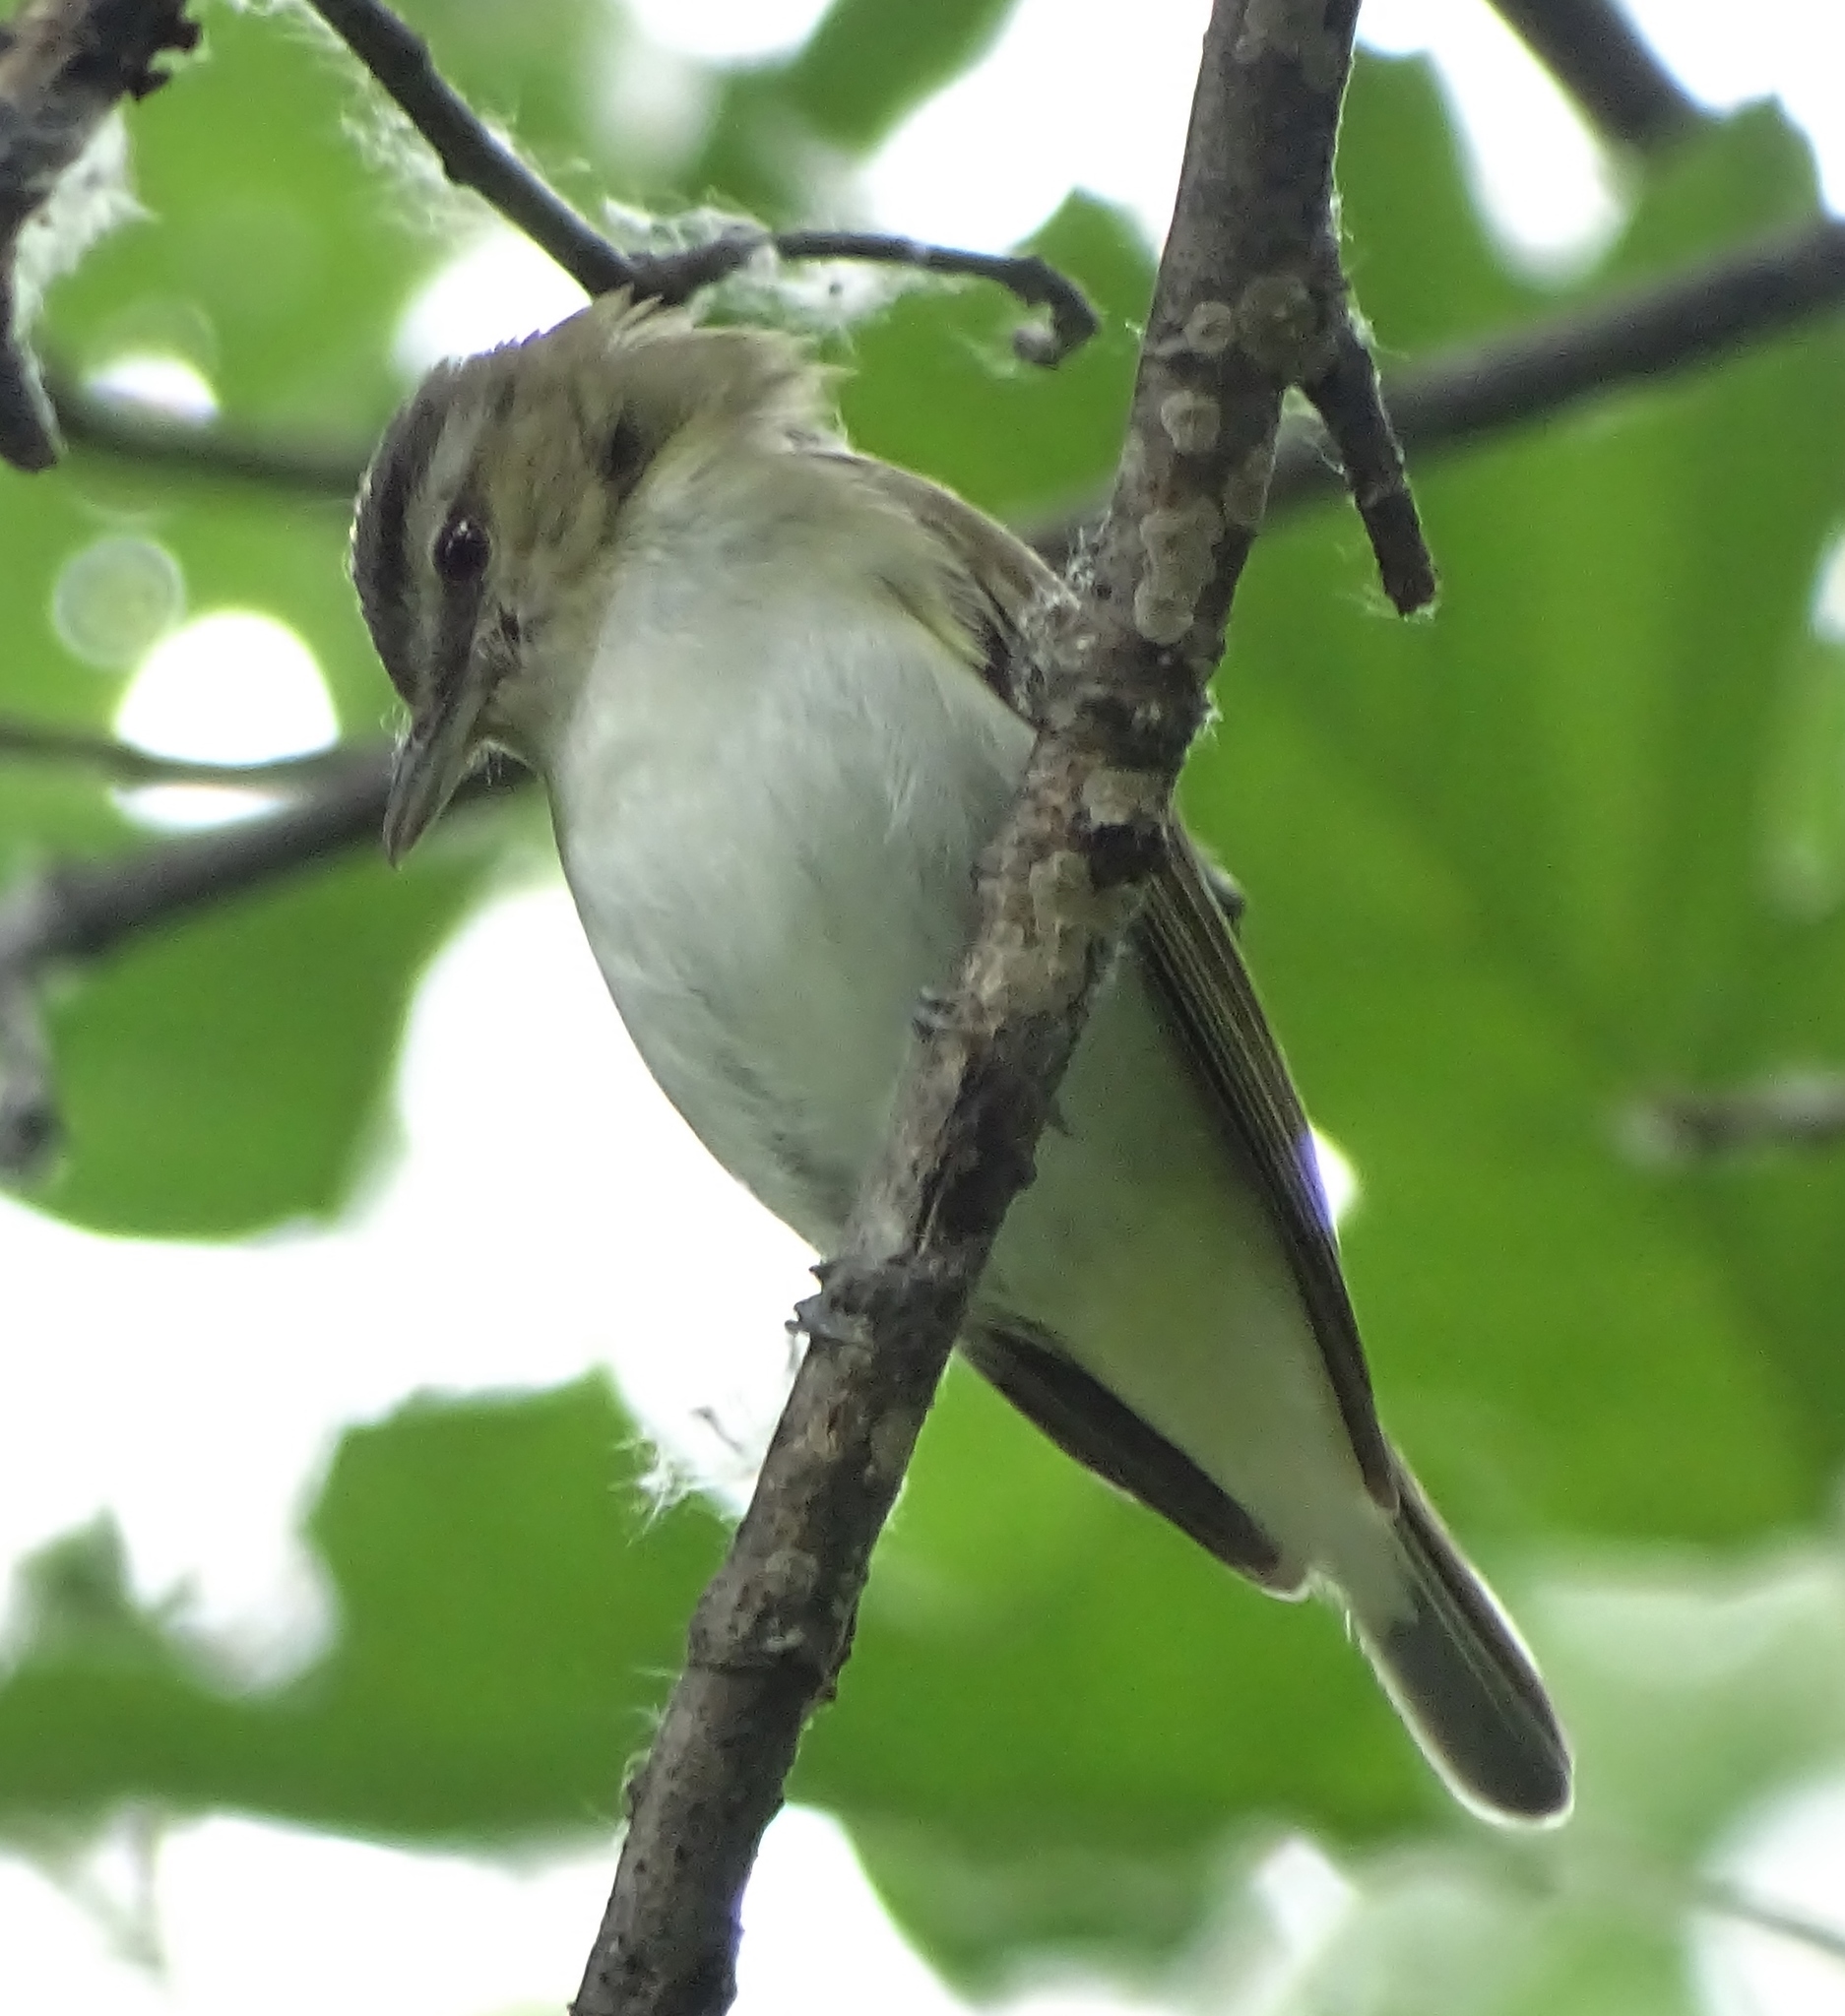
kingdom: Animalia
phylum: Chordata
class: Aves
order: Passeriformes
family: Vireonidae
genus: Vireo
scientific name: Vireo olivaceus
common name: Red-eyed vireo
